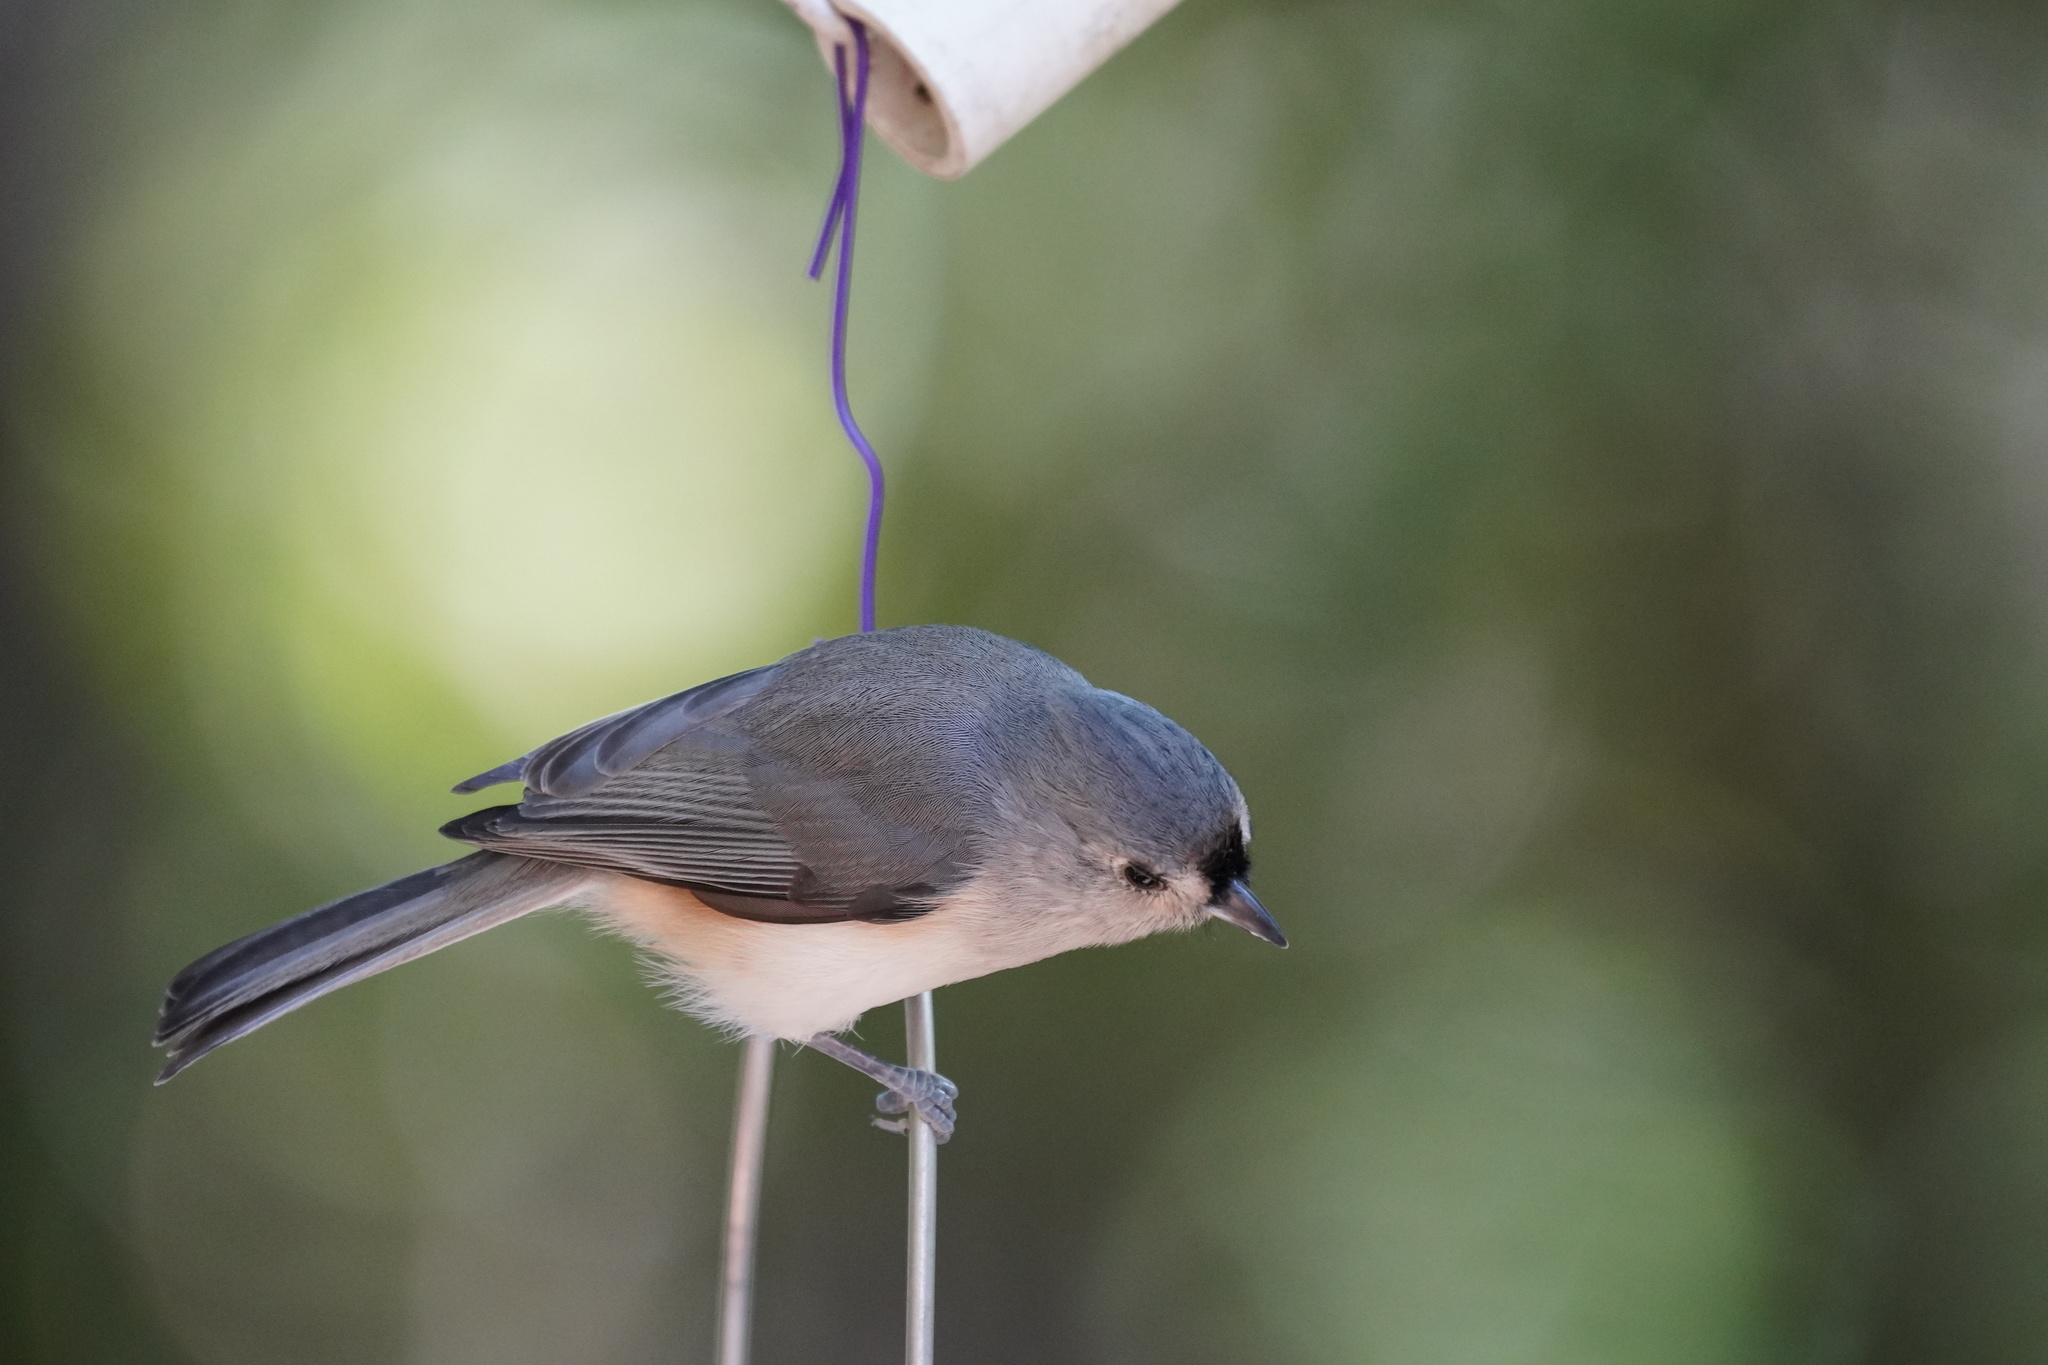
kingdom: Animalia
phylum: Chordata
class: Aves
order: Passeriformes
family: Paridae
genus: Baeolophus
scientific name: Baeolophus bicolor
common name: Tufted titmouse
